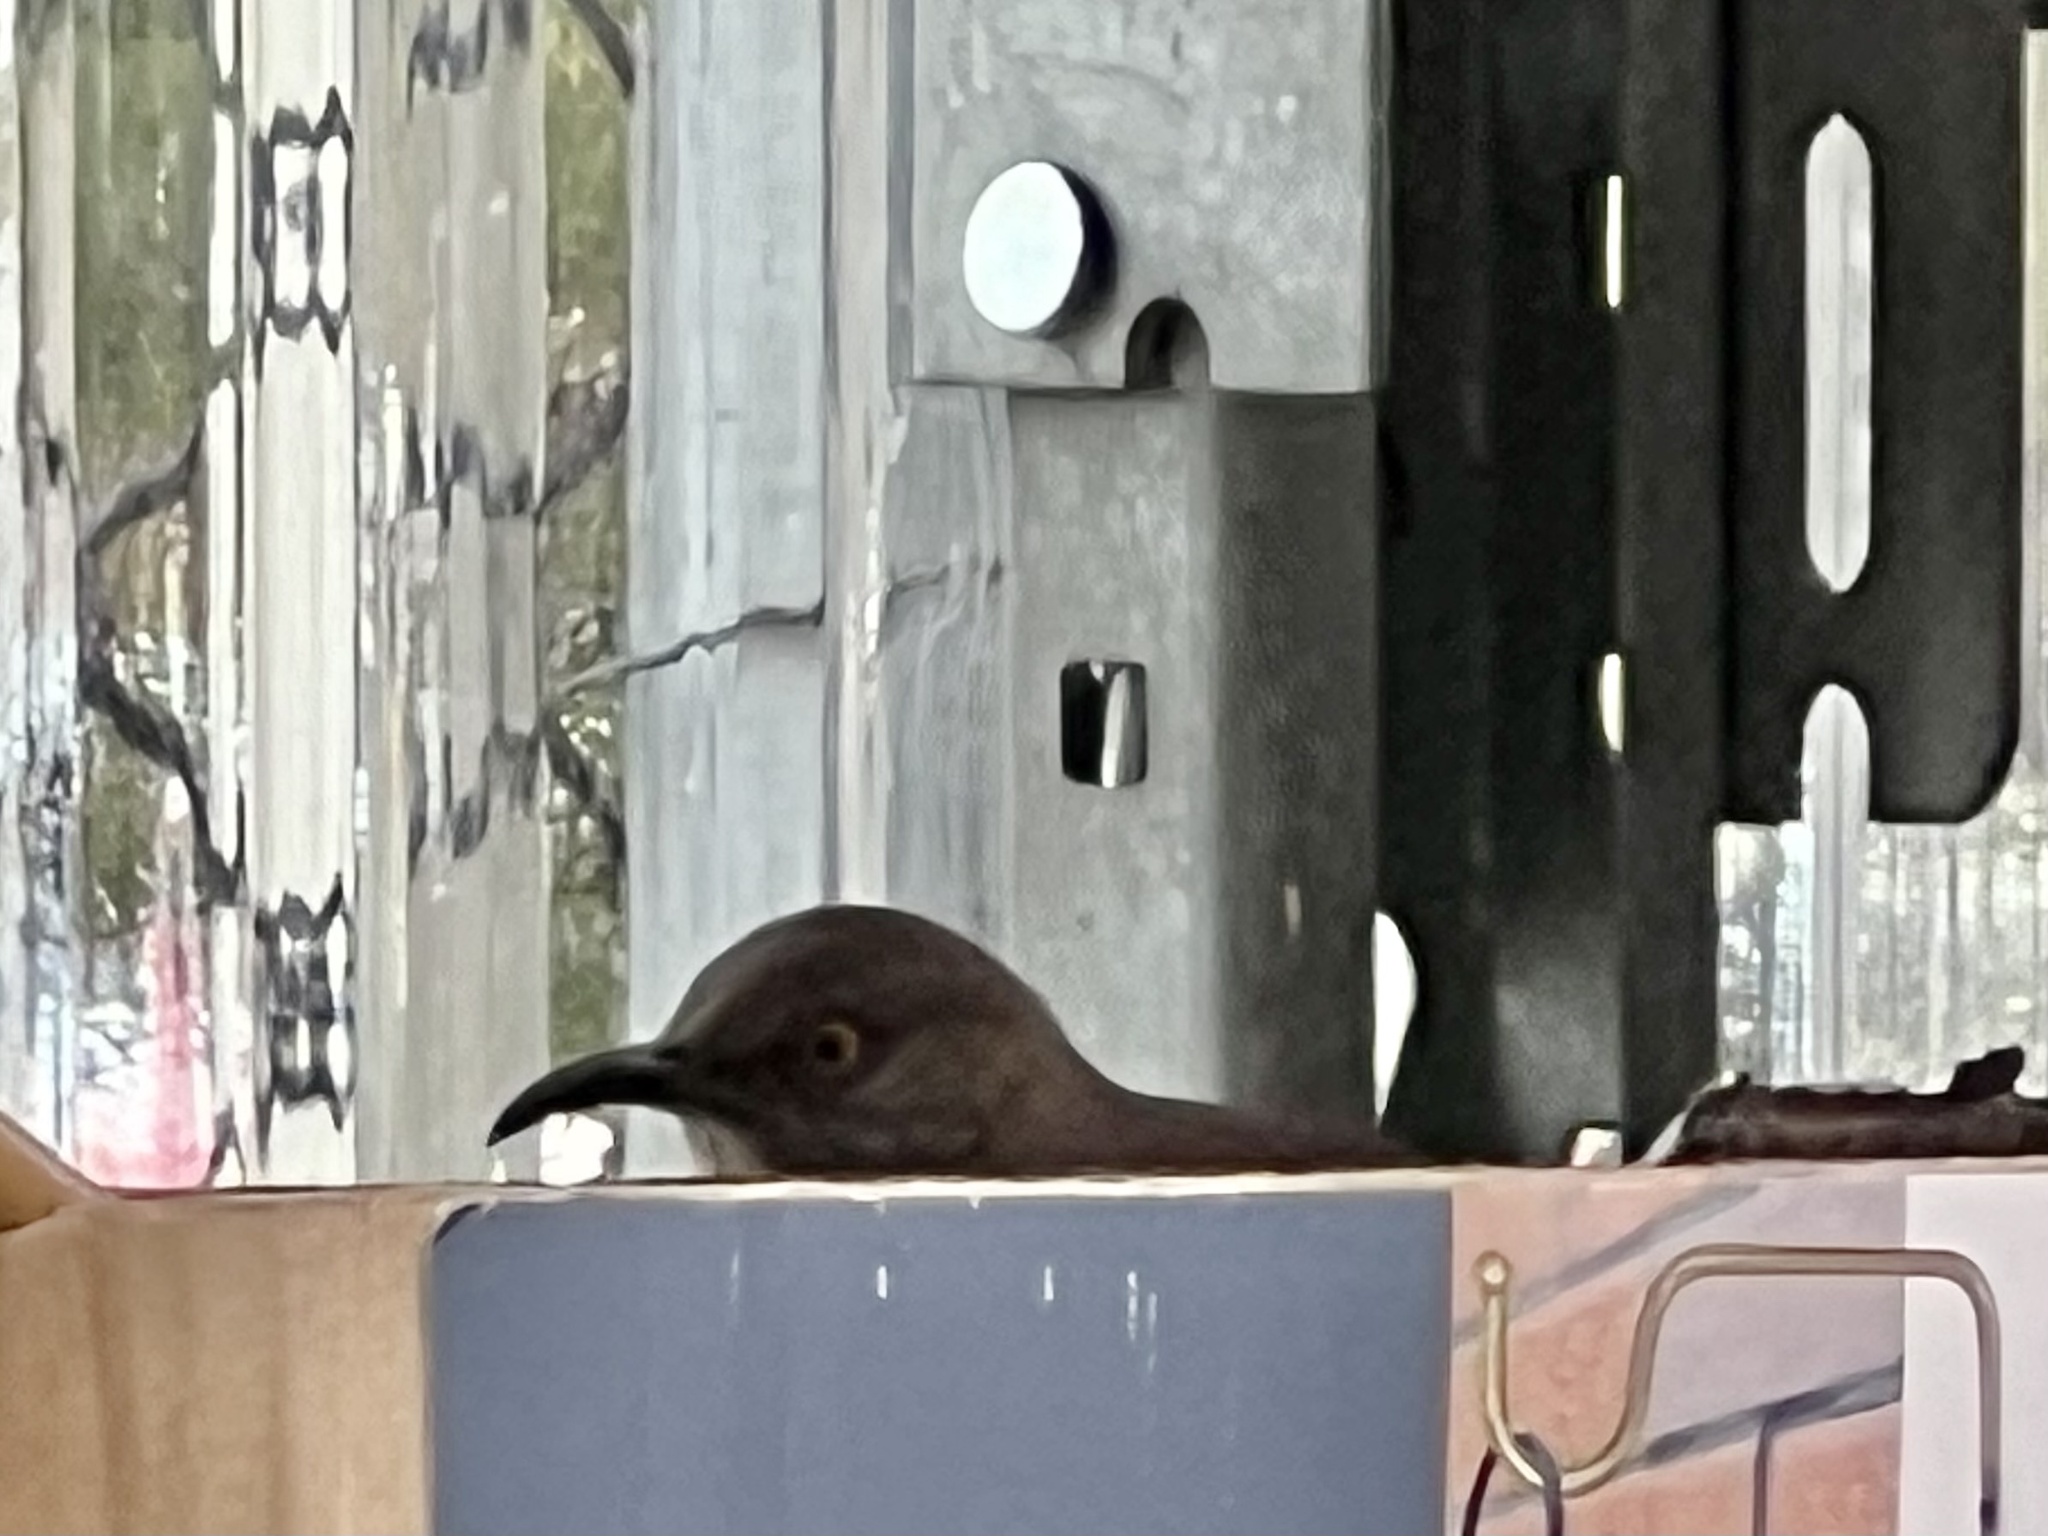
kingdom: Animalia
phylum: Chordata
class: Aves
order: Passeriformes
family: Mimidae
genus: Toxostoma
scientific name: Toxostoma curvirostre
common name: Curve-billed thrasher
